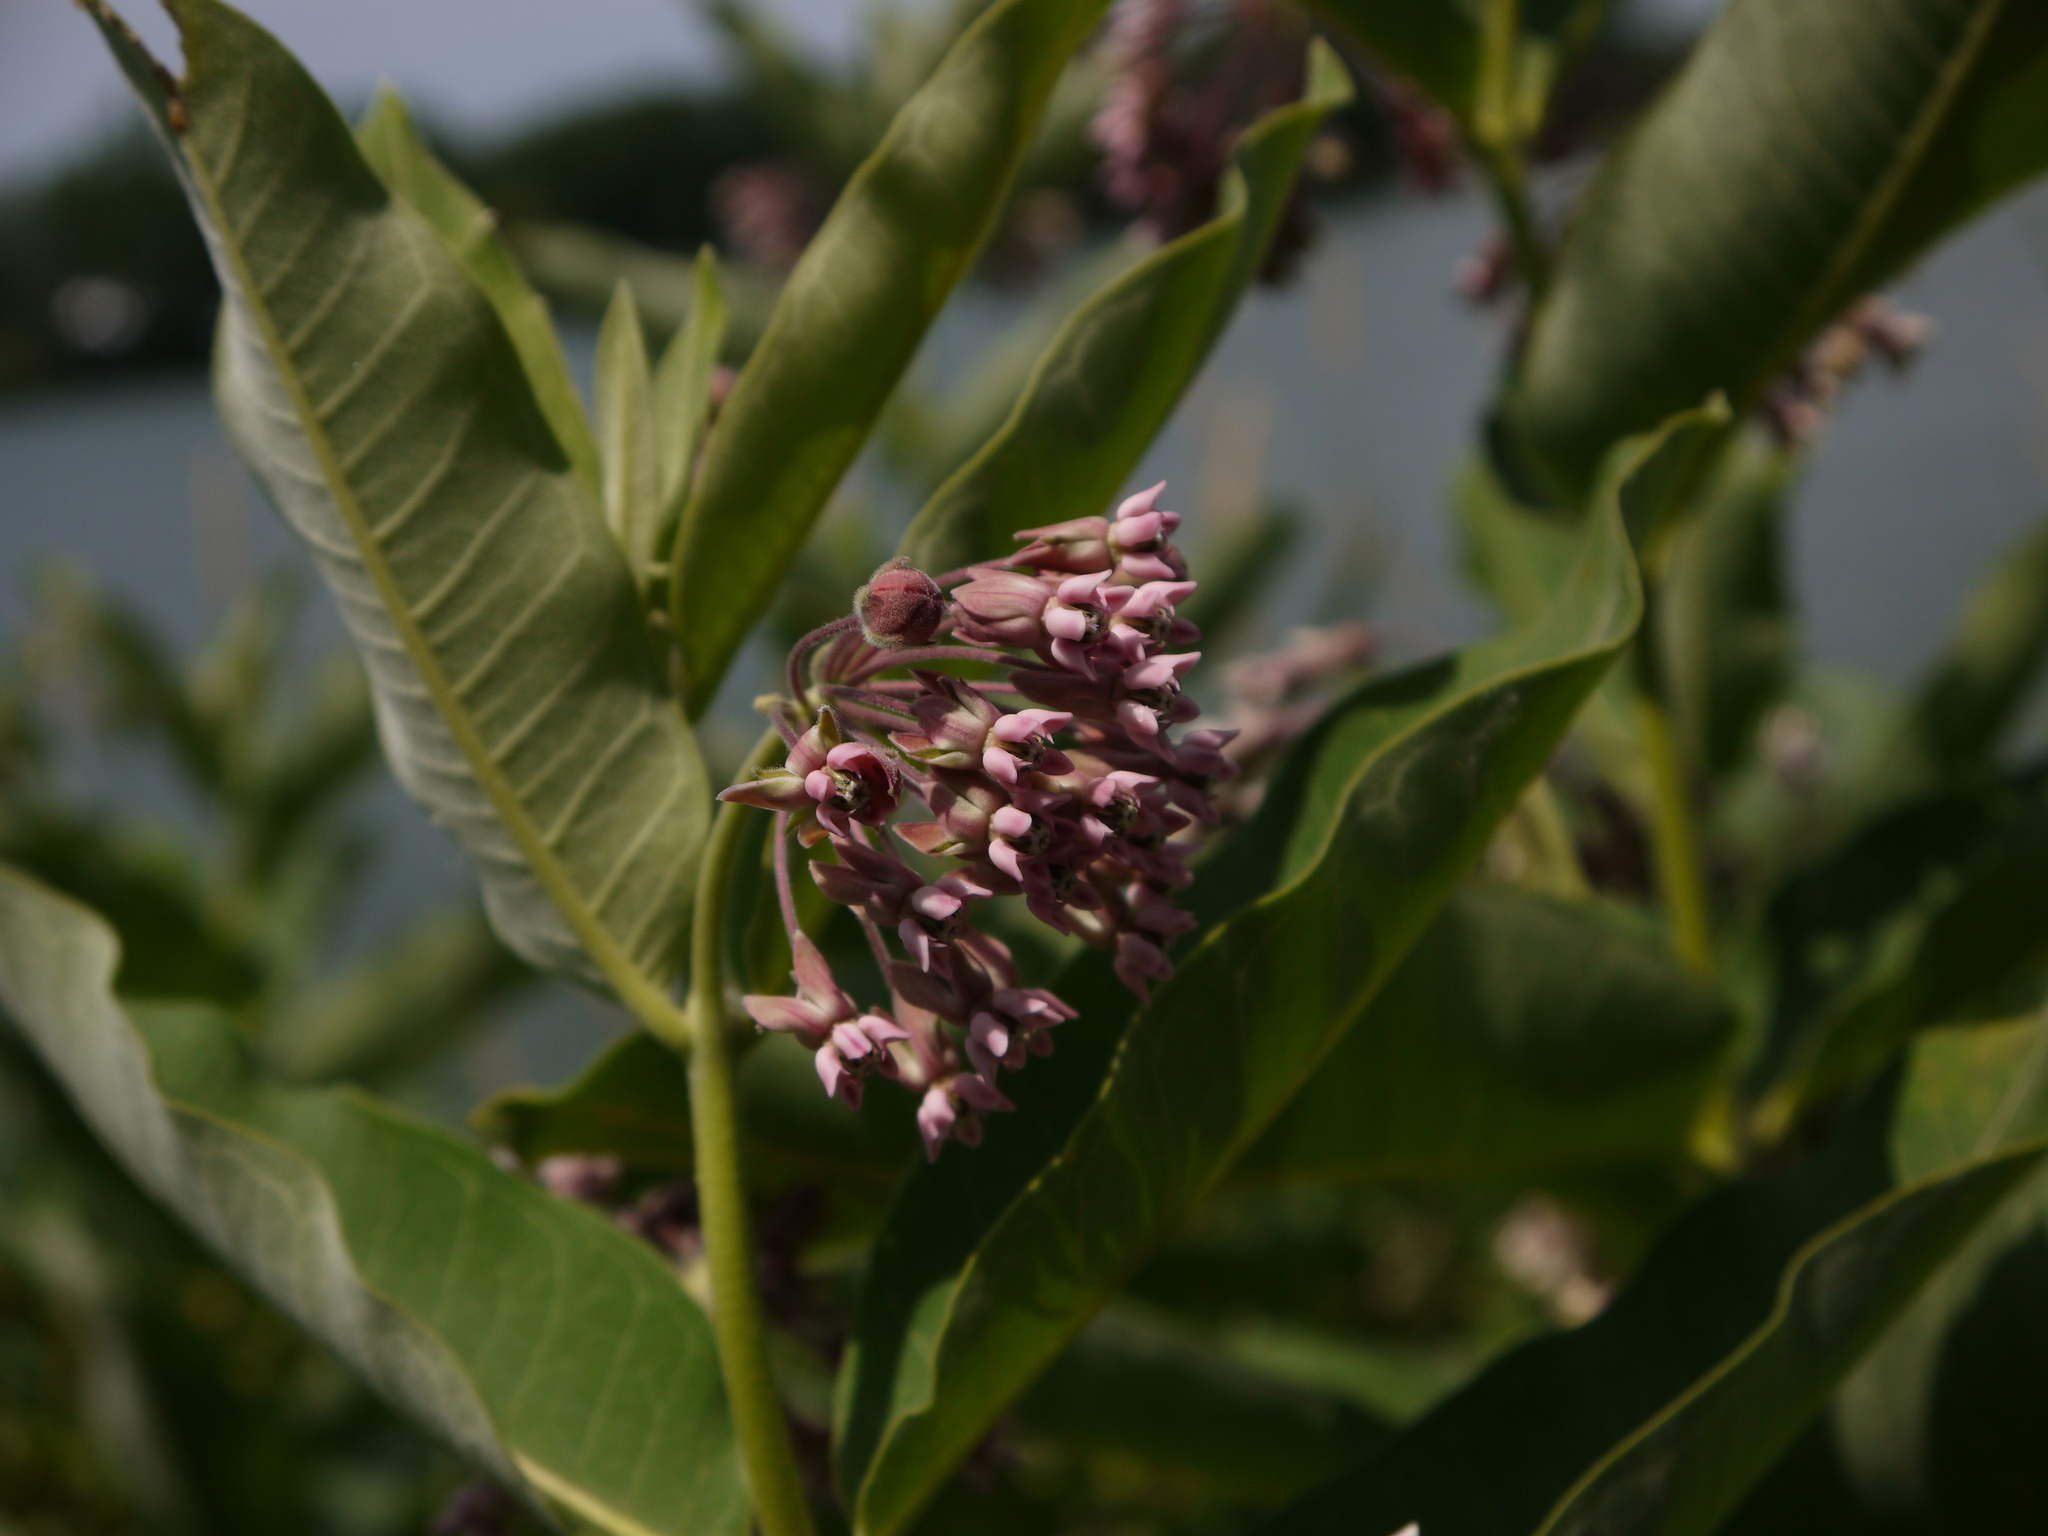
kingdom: Plantae
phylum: Tracheophyta
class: Magnoliopsida
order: Gentianales
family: Apocynaceae
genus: Asclepias
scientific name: Asclepias syriaca
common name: Common milkweed
